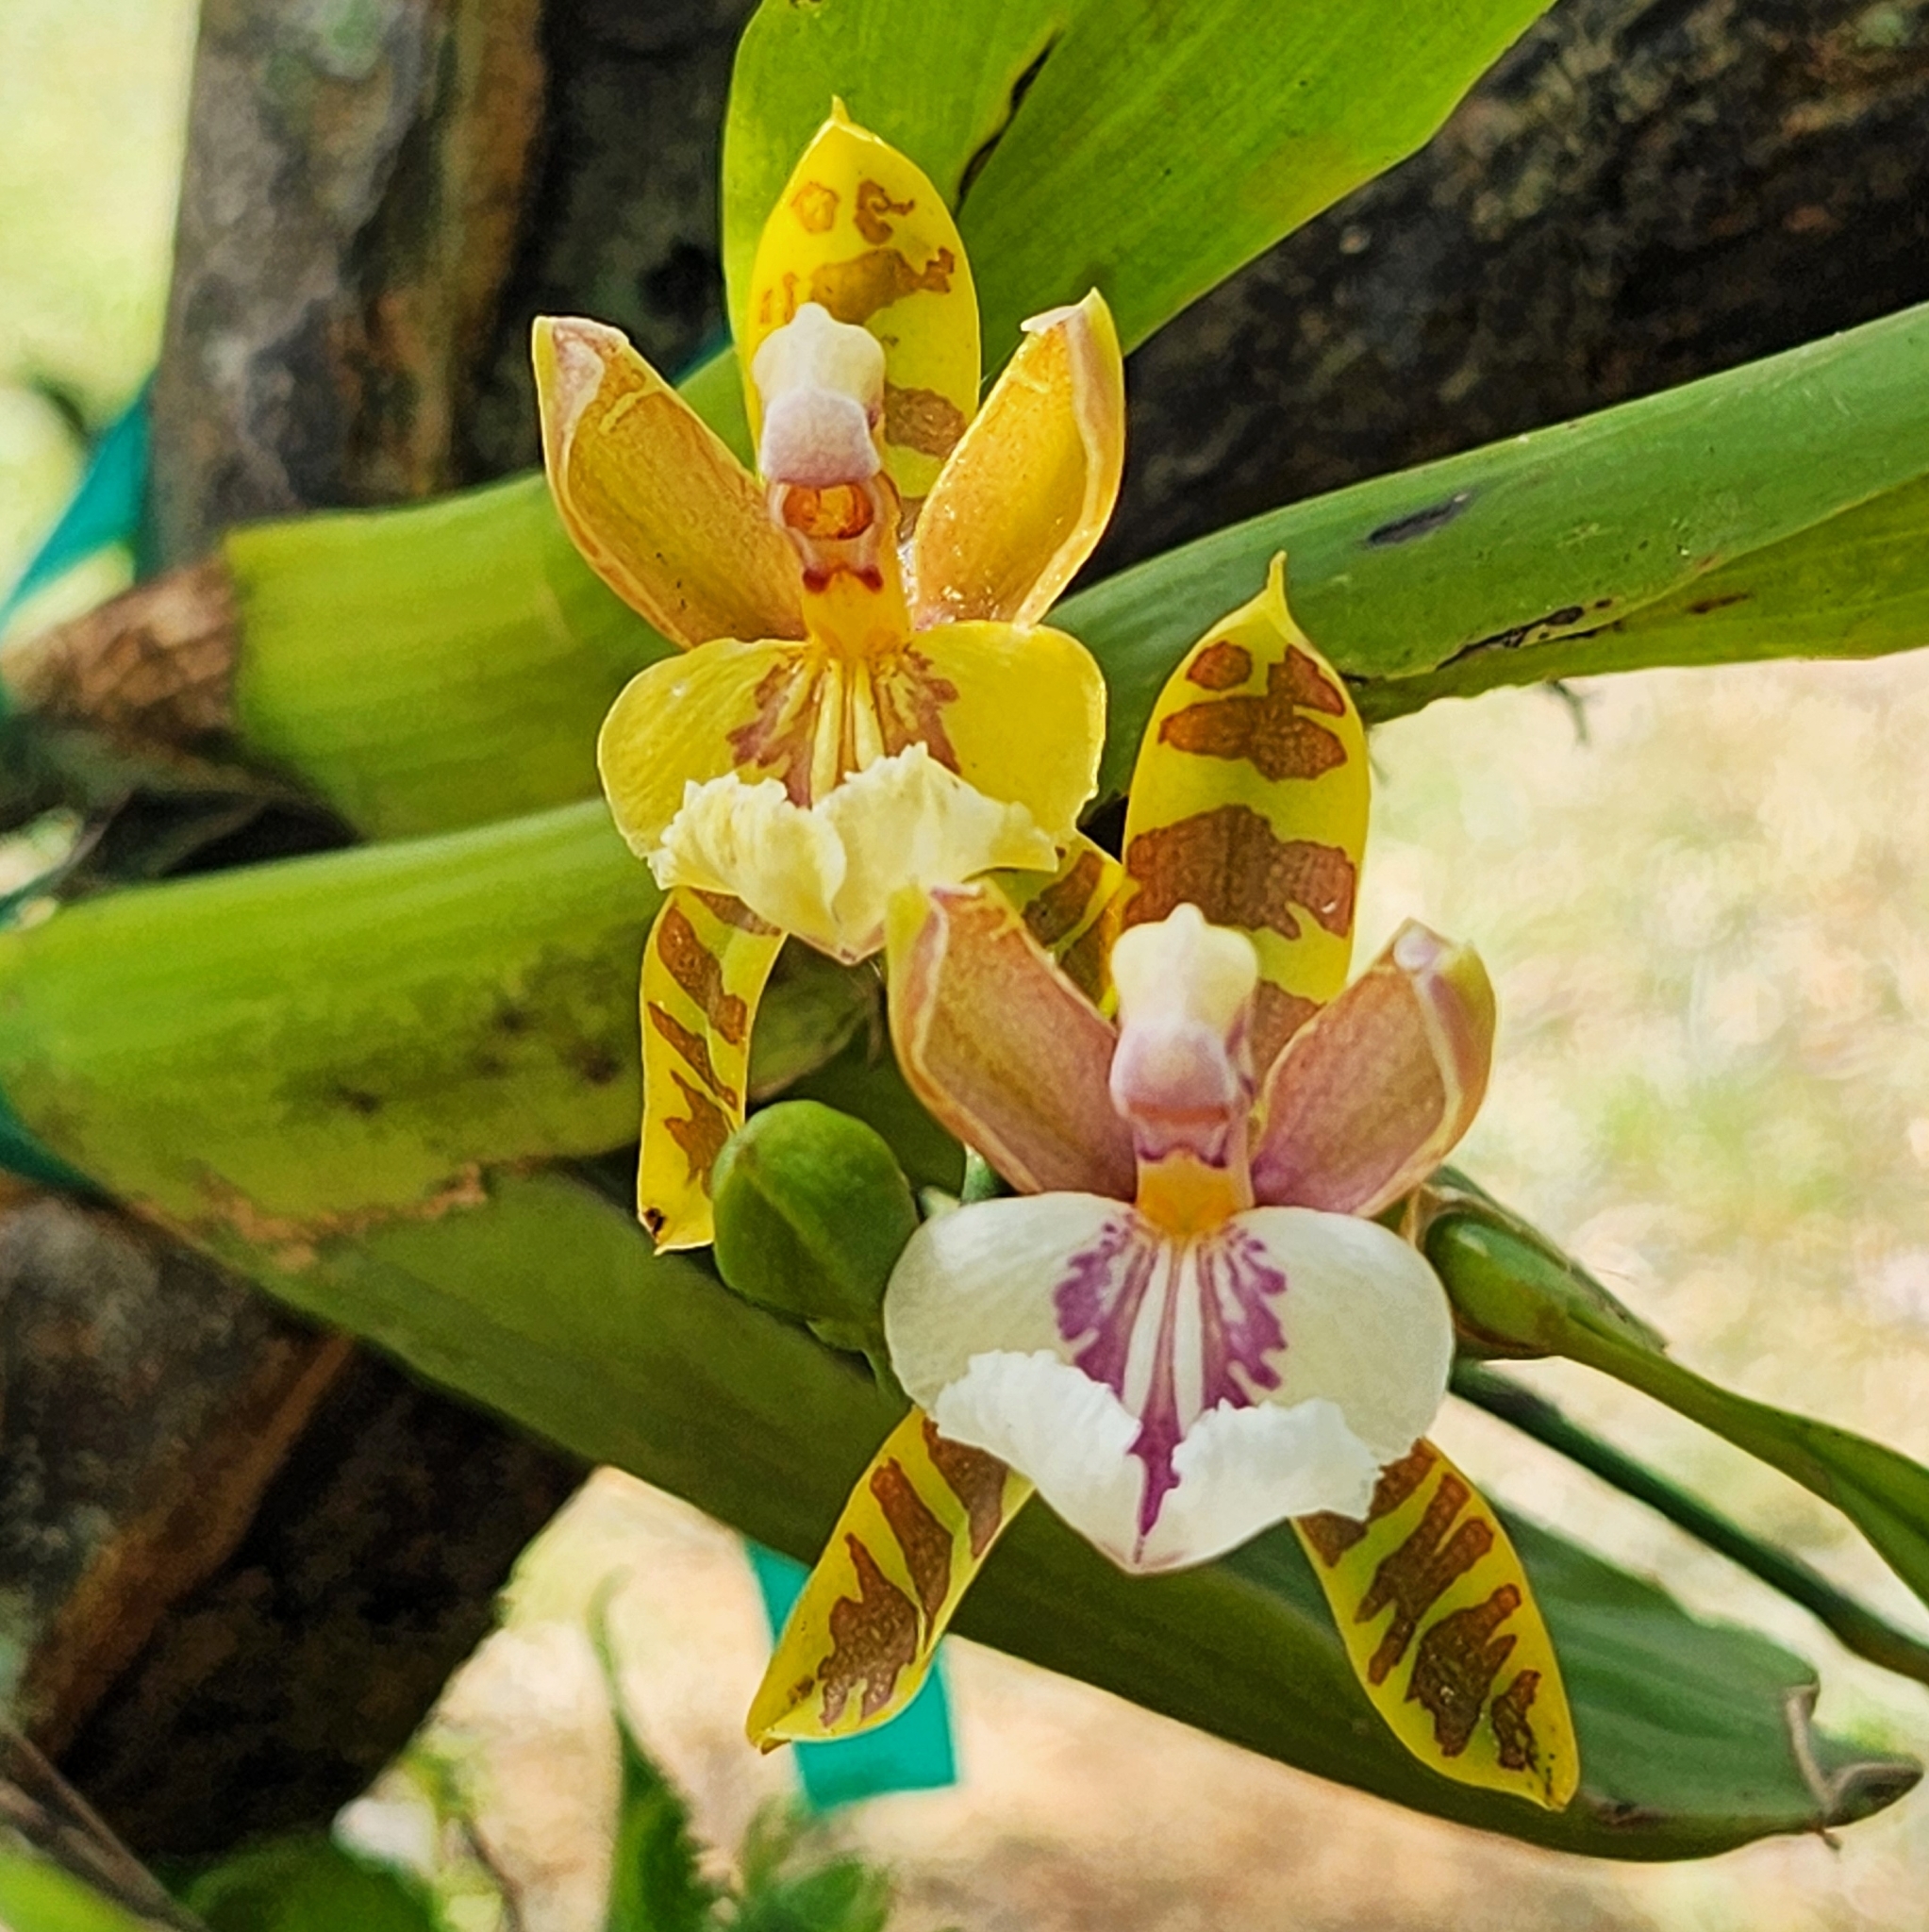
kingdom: Plantae
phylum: Tracheophyta
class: Liliopsida
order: Asparagales
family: Orchidaceae
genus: Aspasia
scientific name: Aspasia epidendroides
